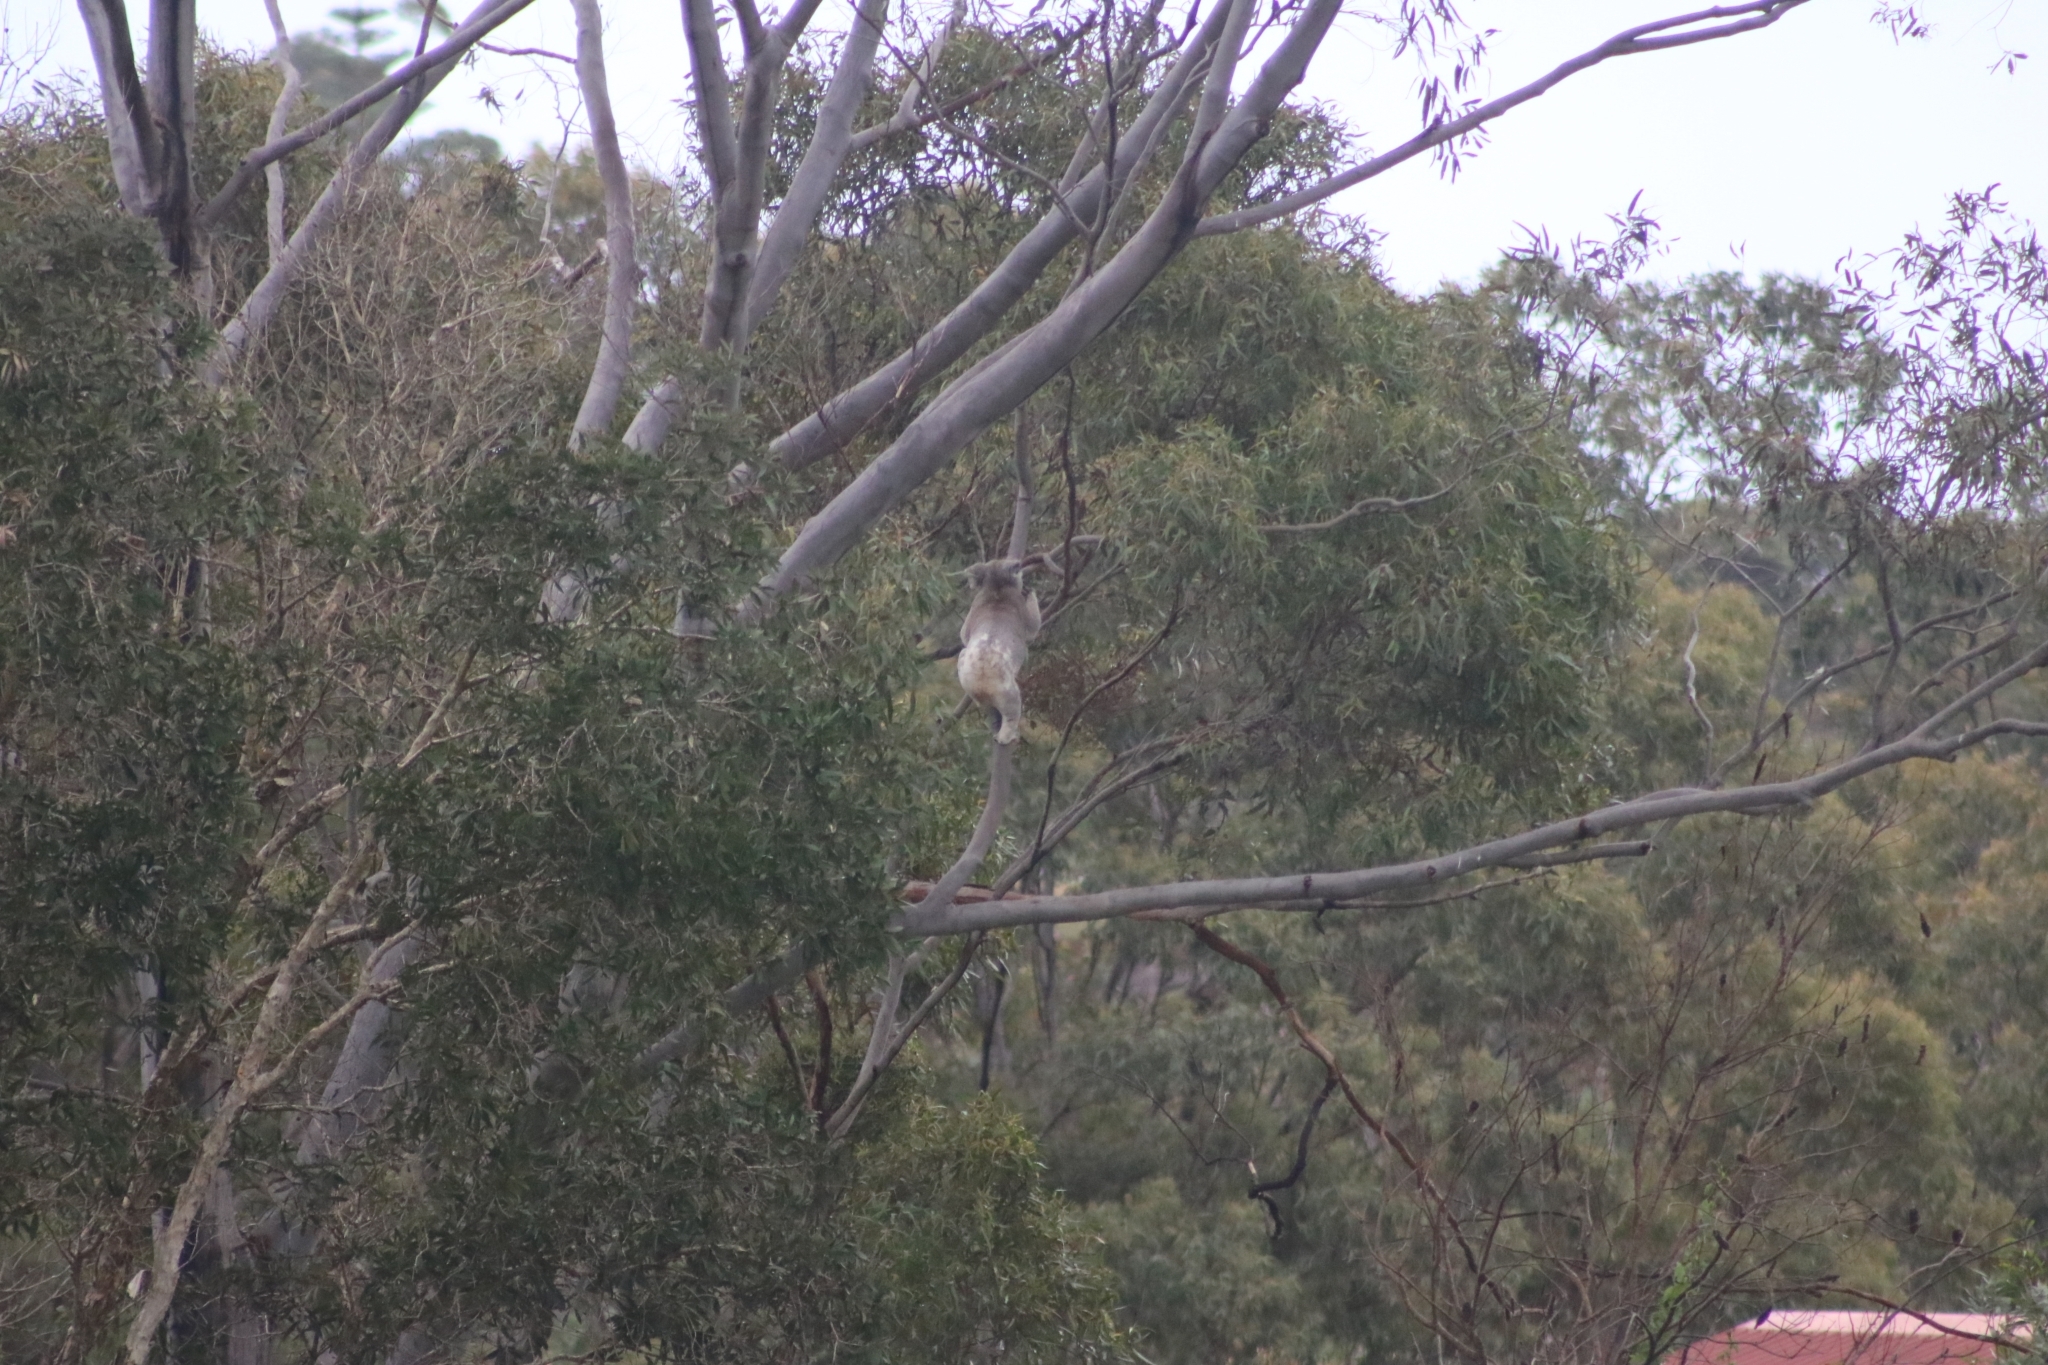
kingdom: Animalia
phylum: Chordata
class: Mammalia
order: Diprotodontia
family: Phascolarctidae
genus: Phascolarctos
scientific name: Phascolarctos cinereus
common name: Koala
